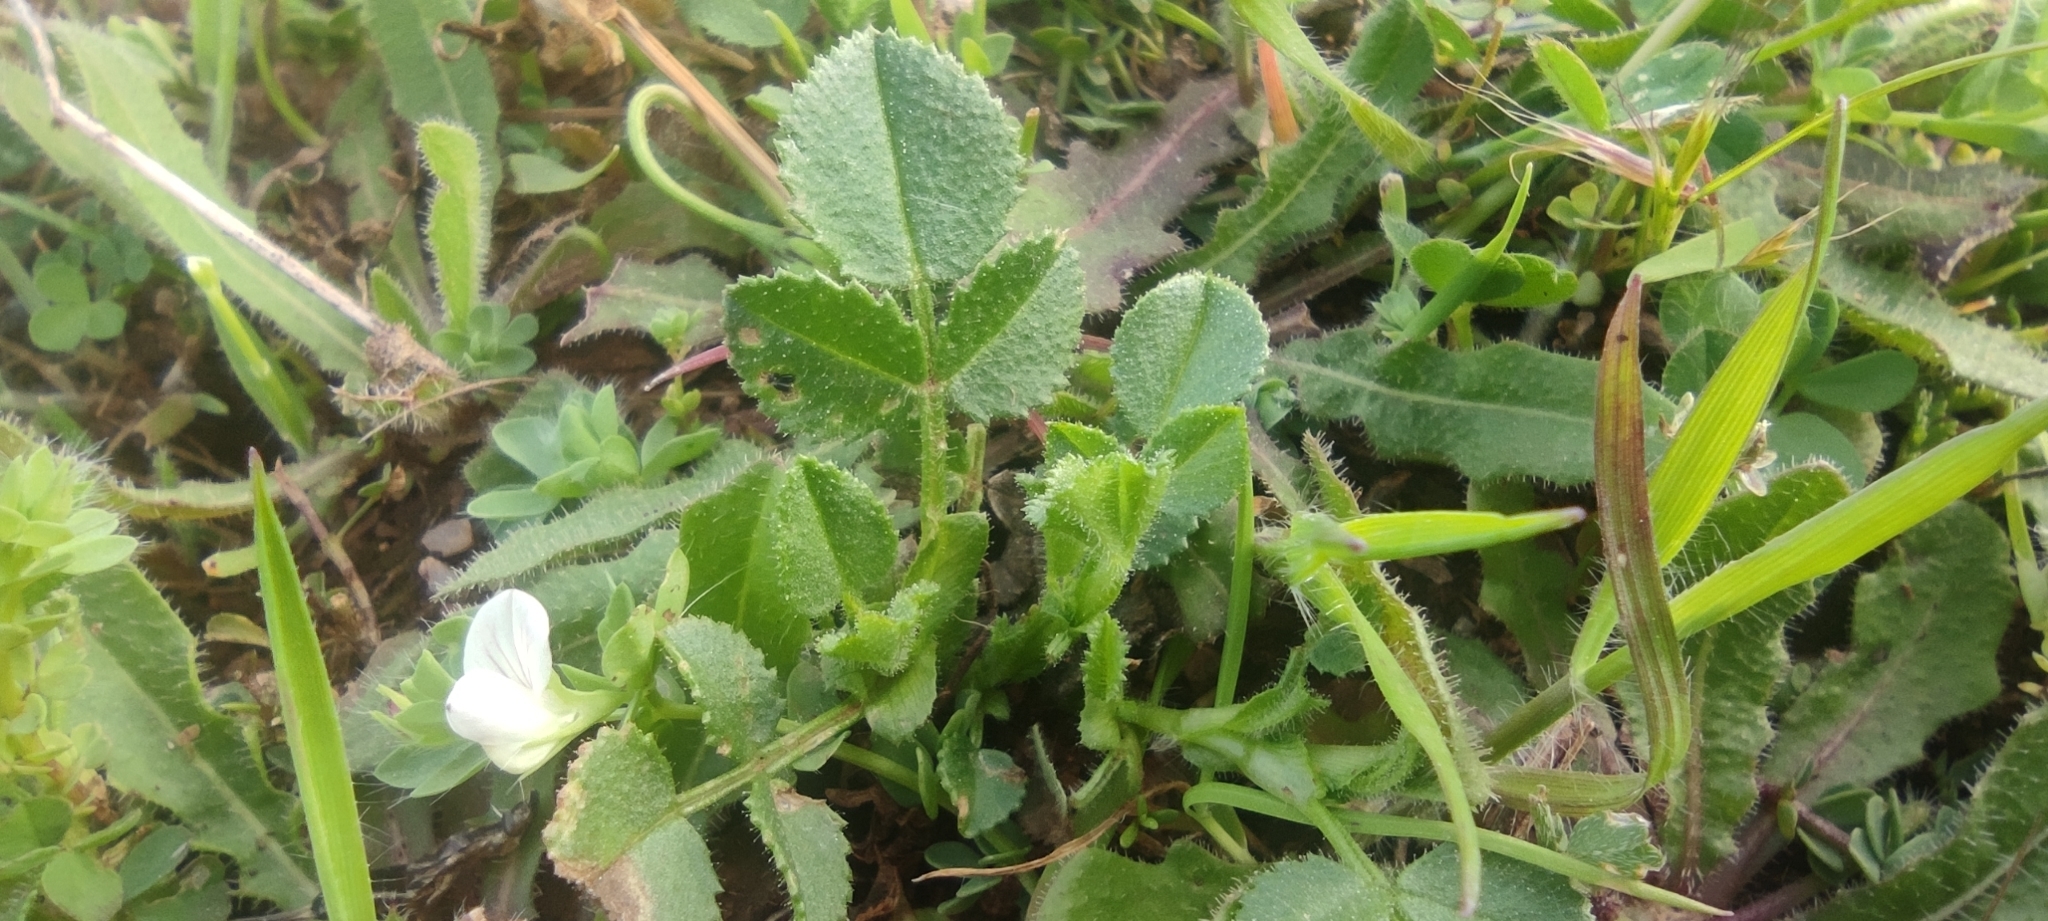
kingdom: Plantae
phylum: Tracheophyta
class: Magnoliopsida
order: Fabales
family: Fabaceae
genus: Lotus
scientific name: Lotus conimbricensis
